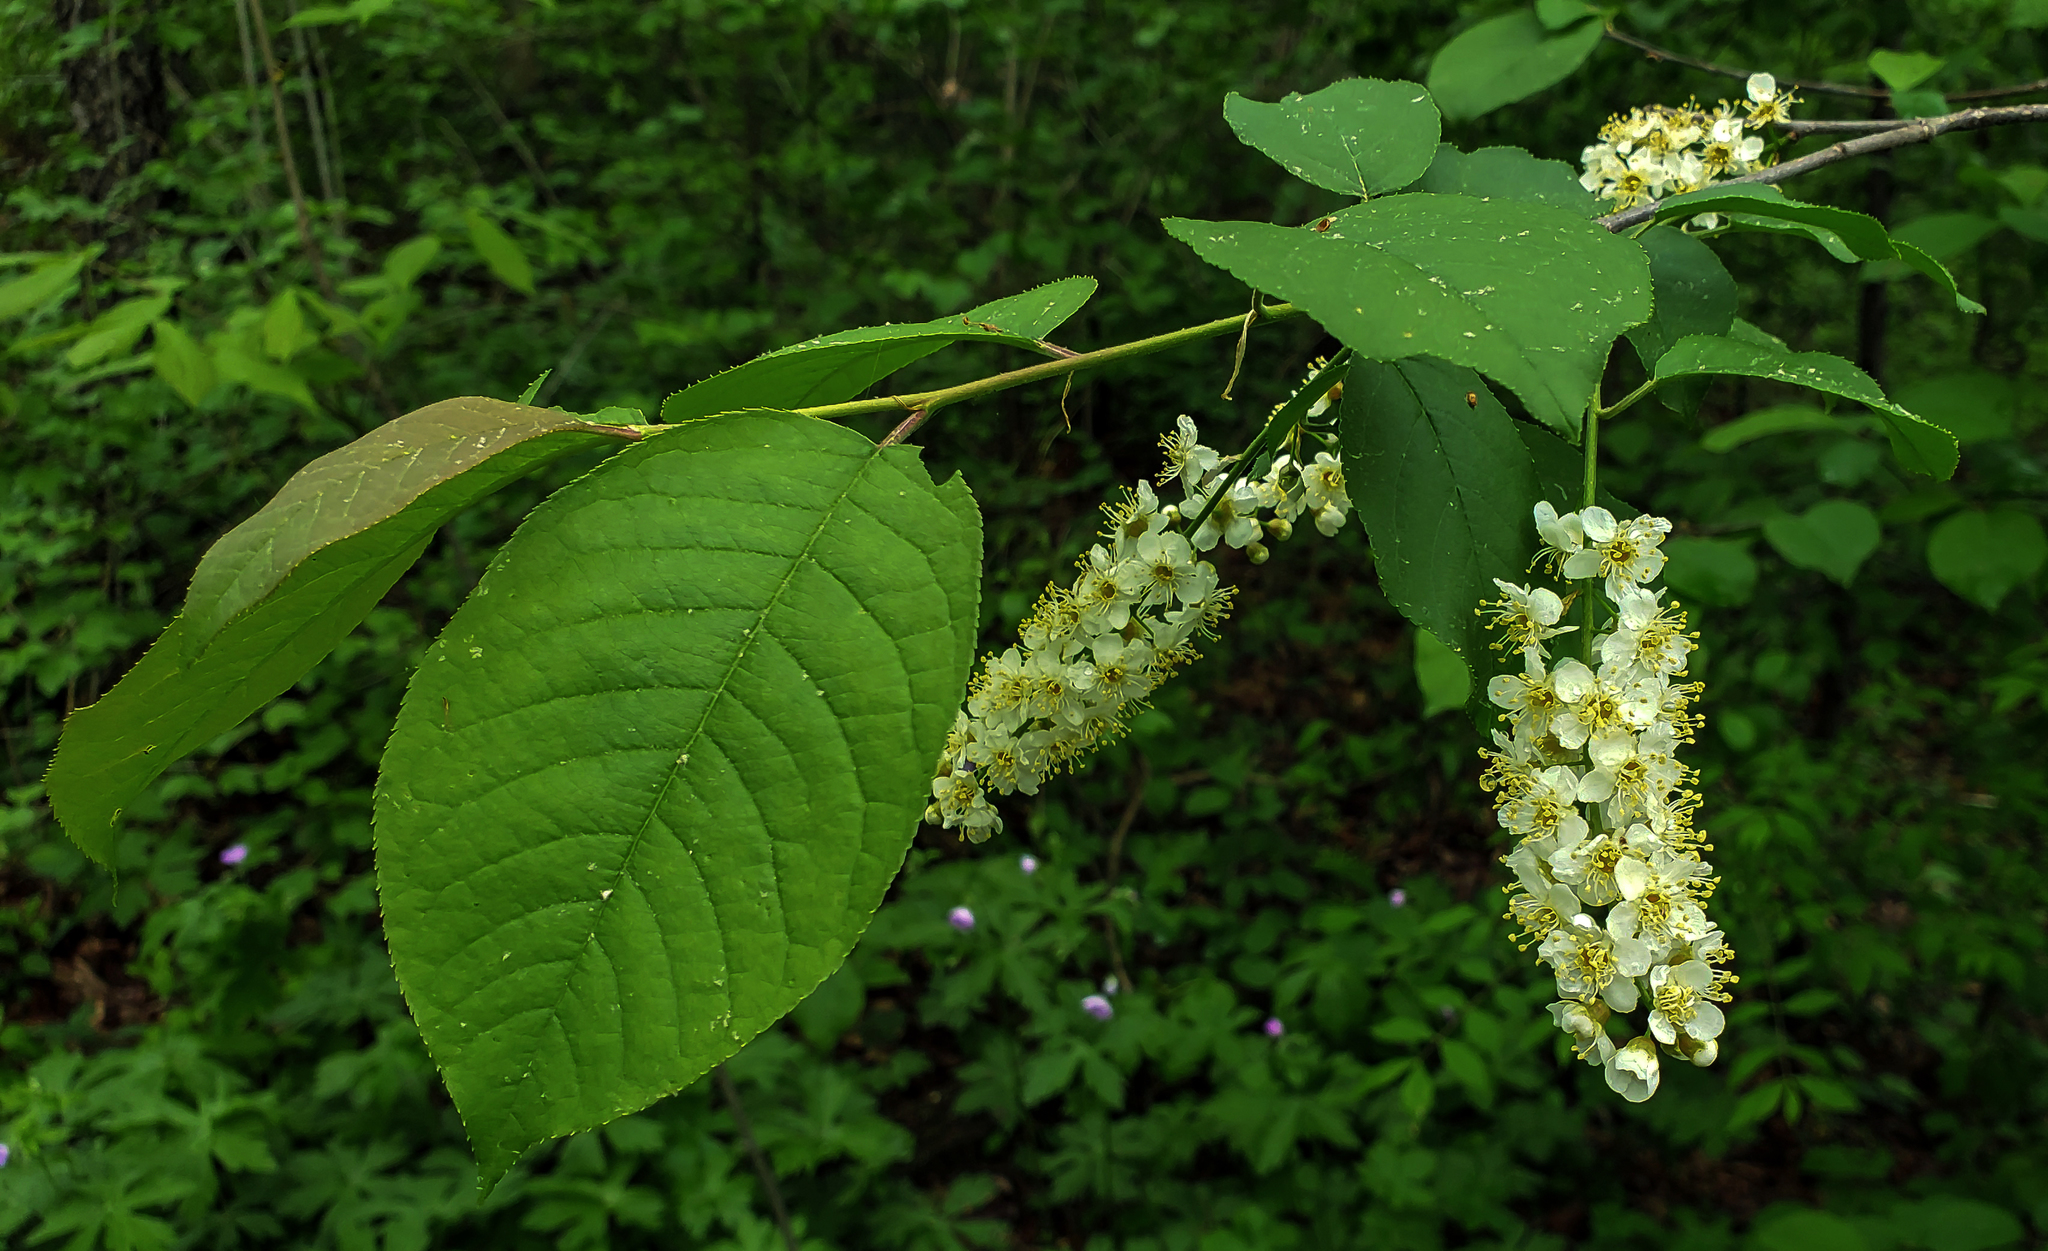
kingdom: Plantae
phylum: Tracheophyta
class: Magnoliopsida
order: Rosales
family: Rosaceae
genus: Prunus
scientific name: Prunus virginiana
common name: Chokecherry
